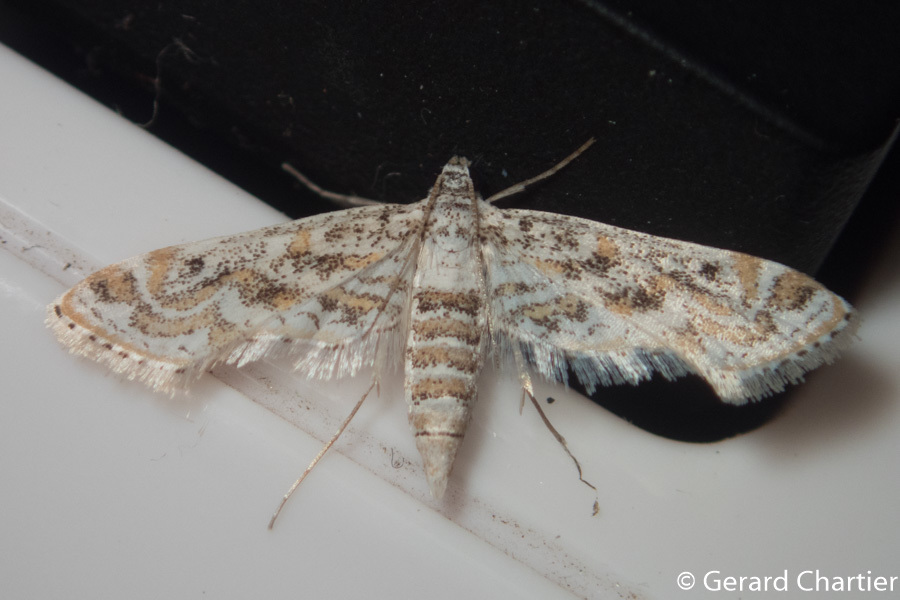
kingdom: Animalia
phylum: Arthropoda
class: Insecta
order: Lepidoptera
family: Crambidae
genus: Parapoynx
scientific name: Parapoynx diminutalis
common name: Hydrilla leafcutter
